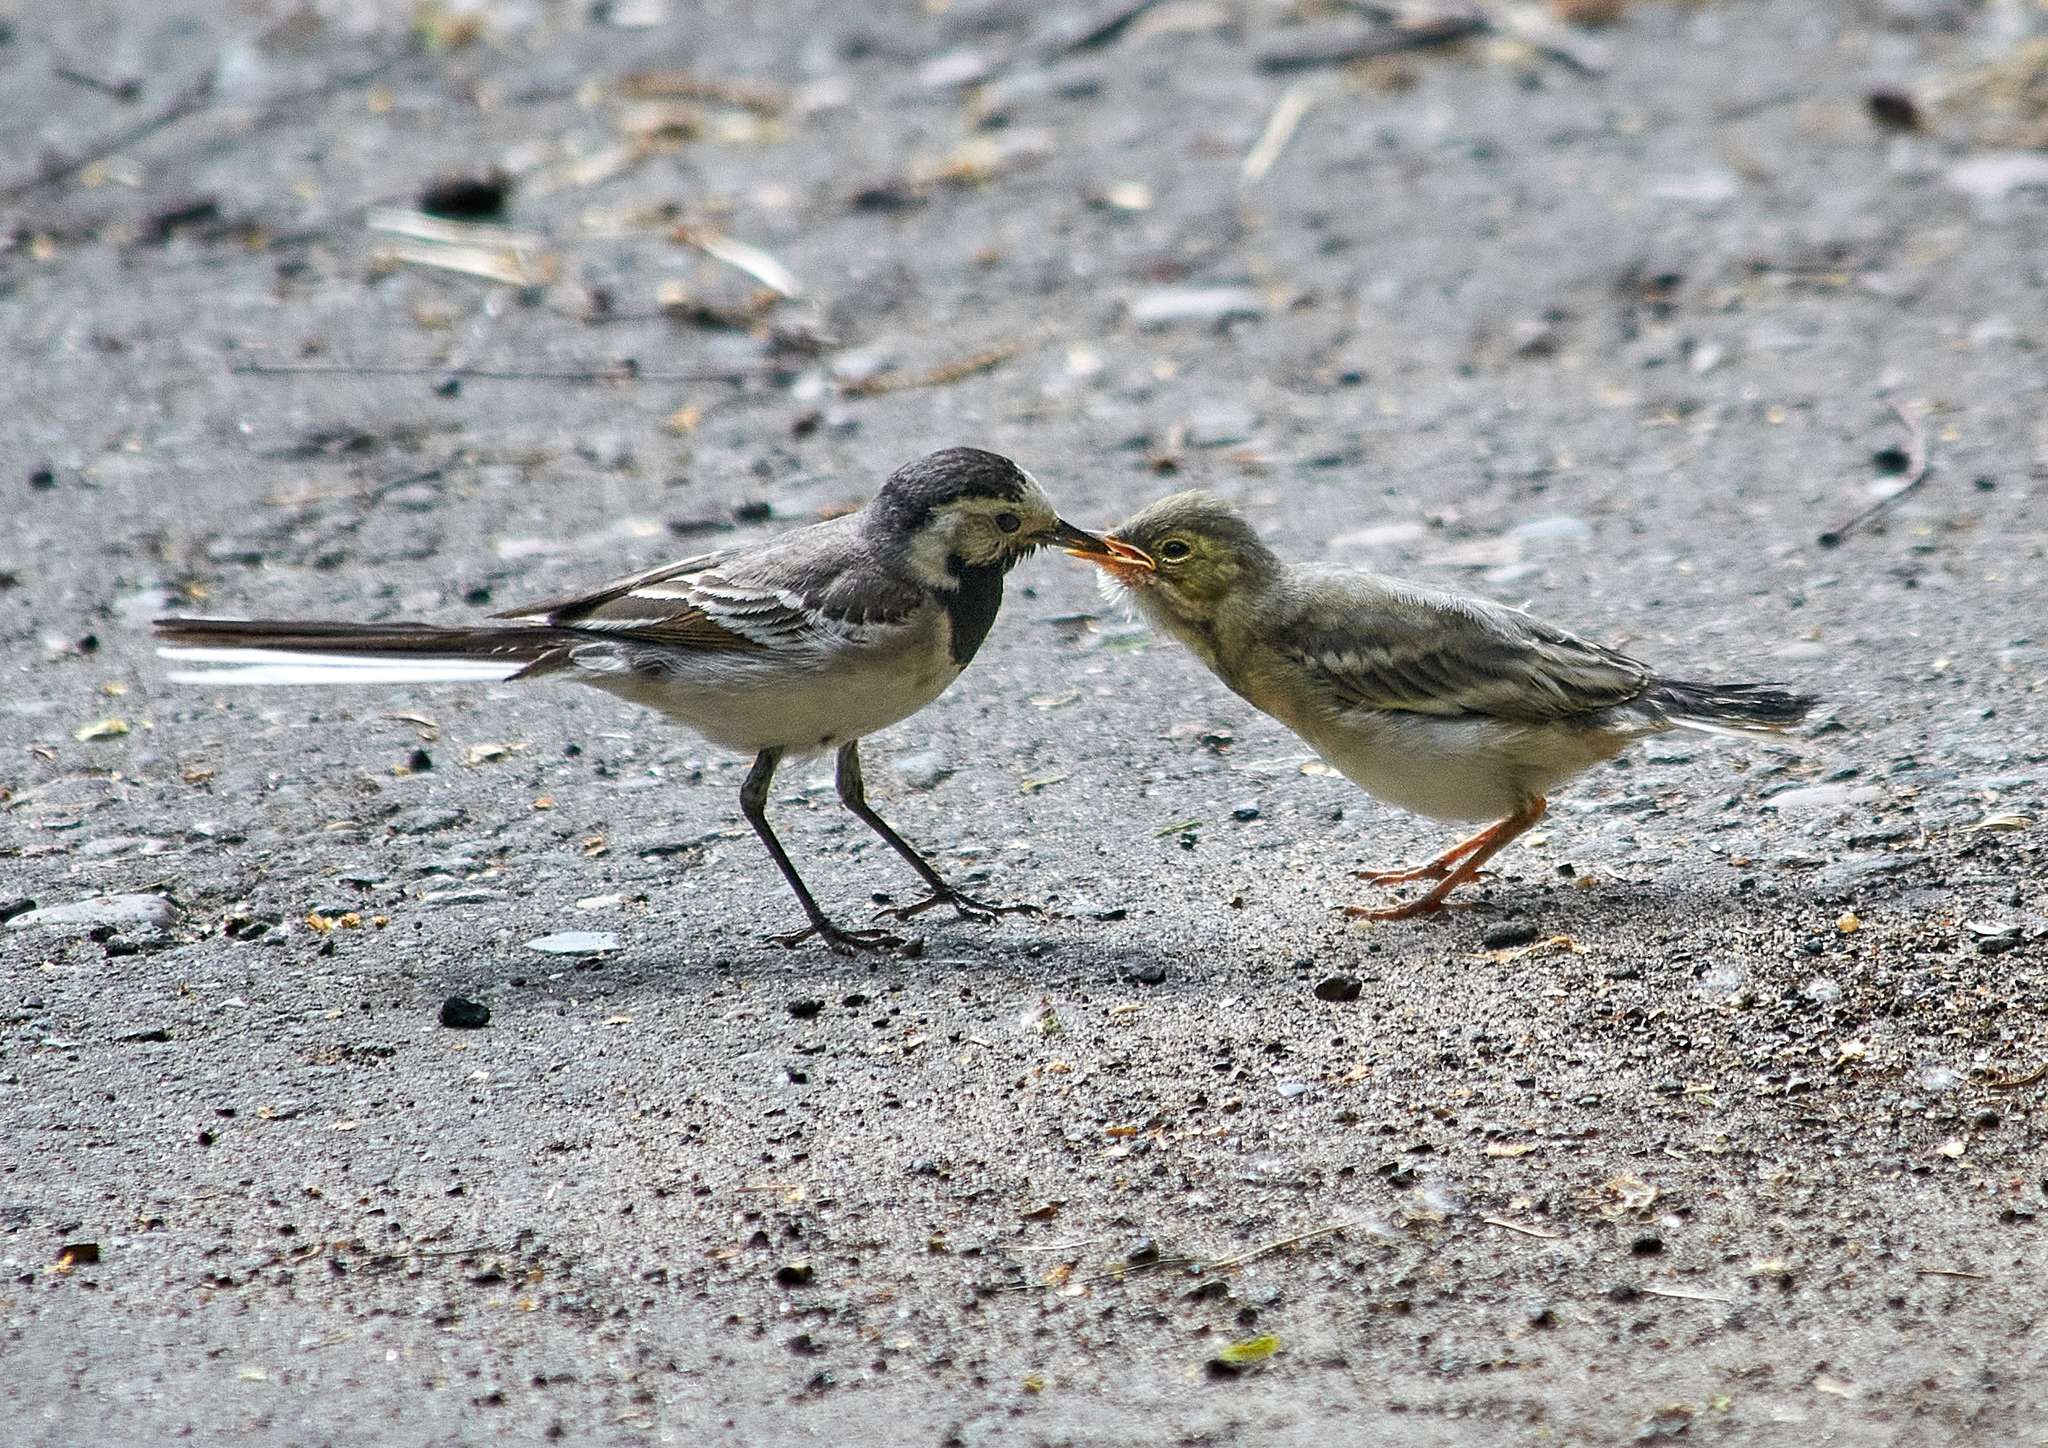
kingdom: Animalia
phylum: Chordata
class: Aves
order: Passeriformes
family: Motacillidae
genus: Motacilla
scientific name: Motacilla alba
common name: White wagtail
